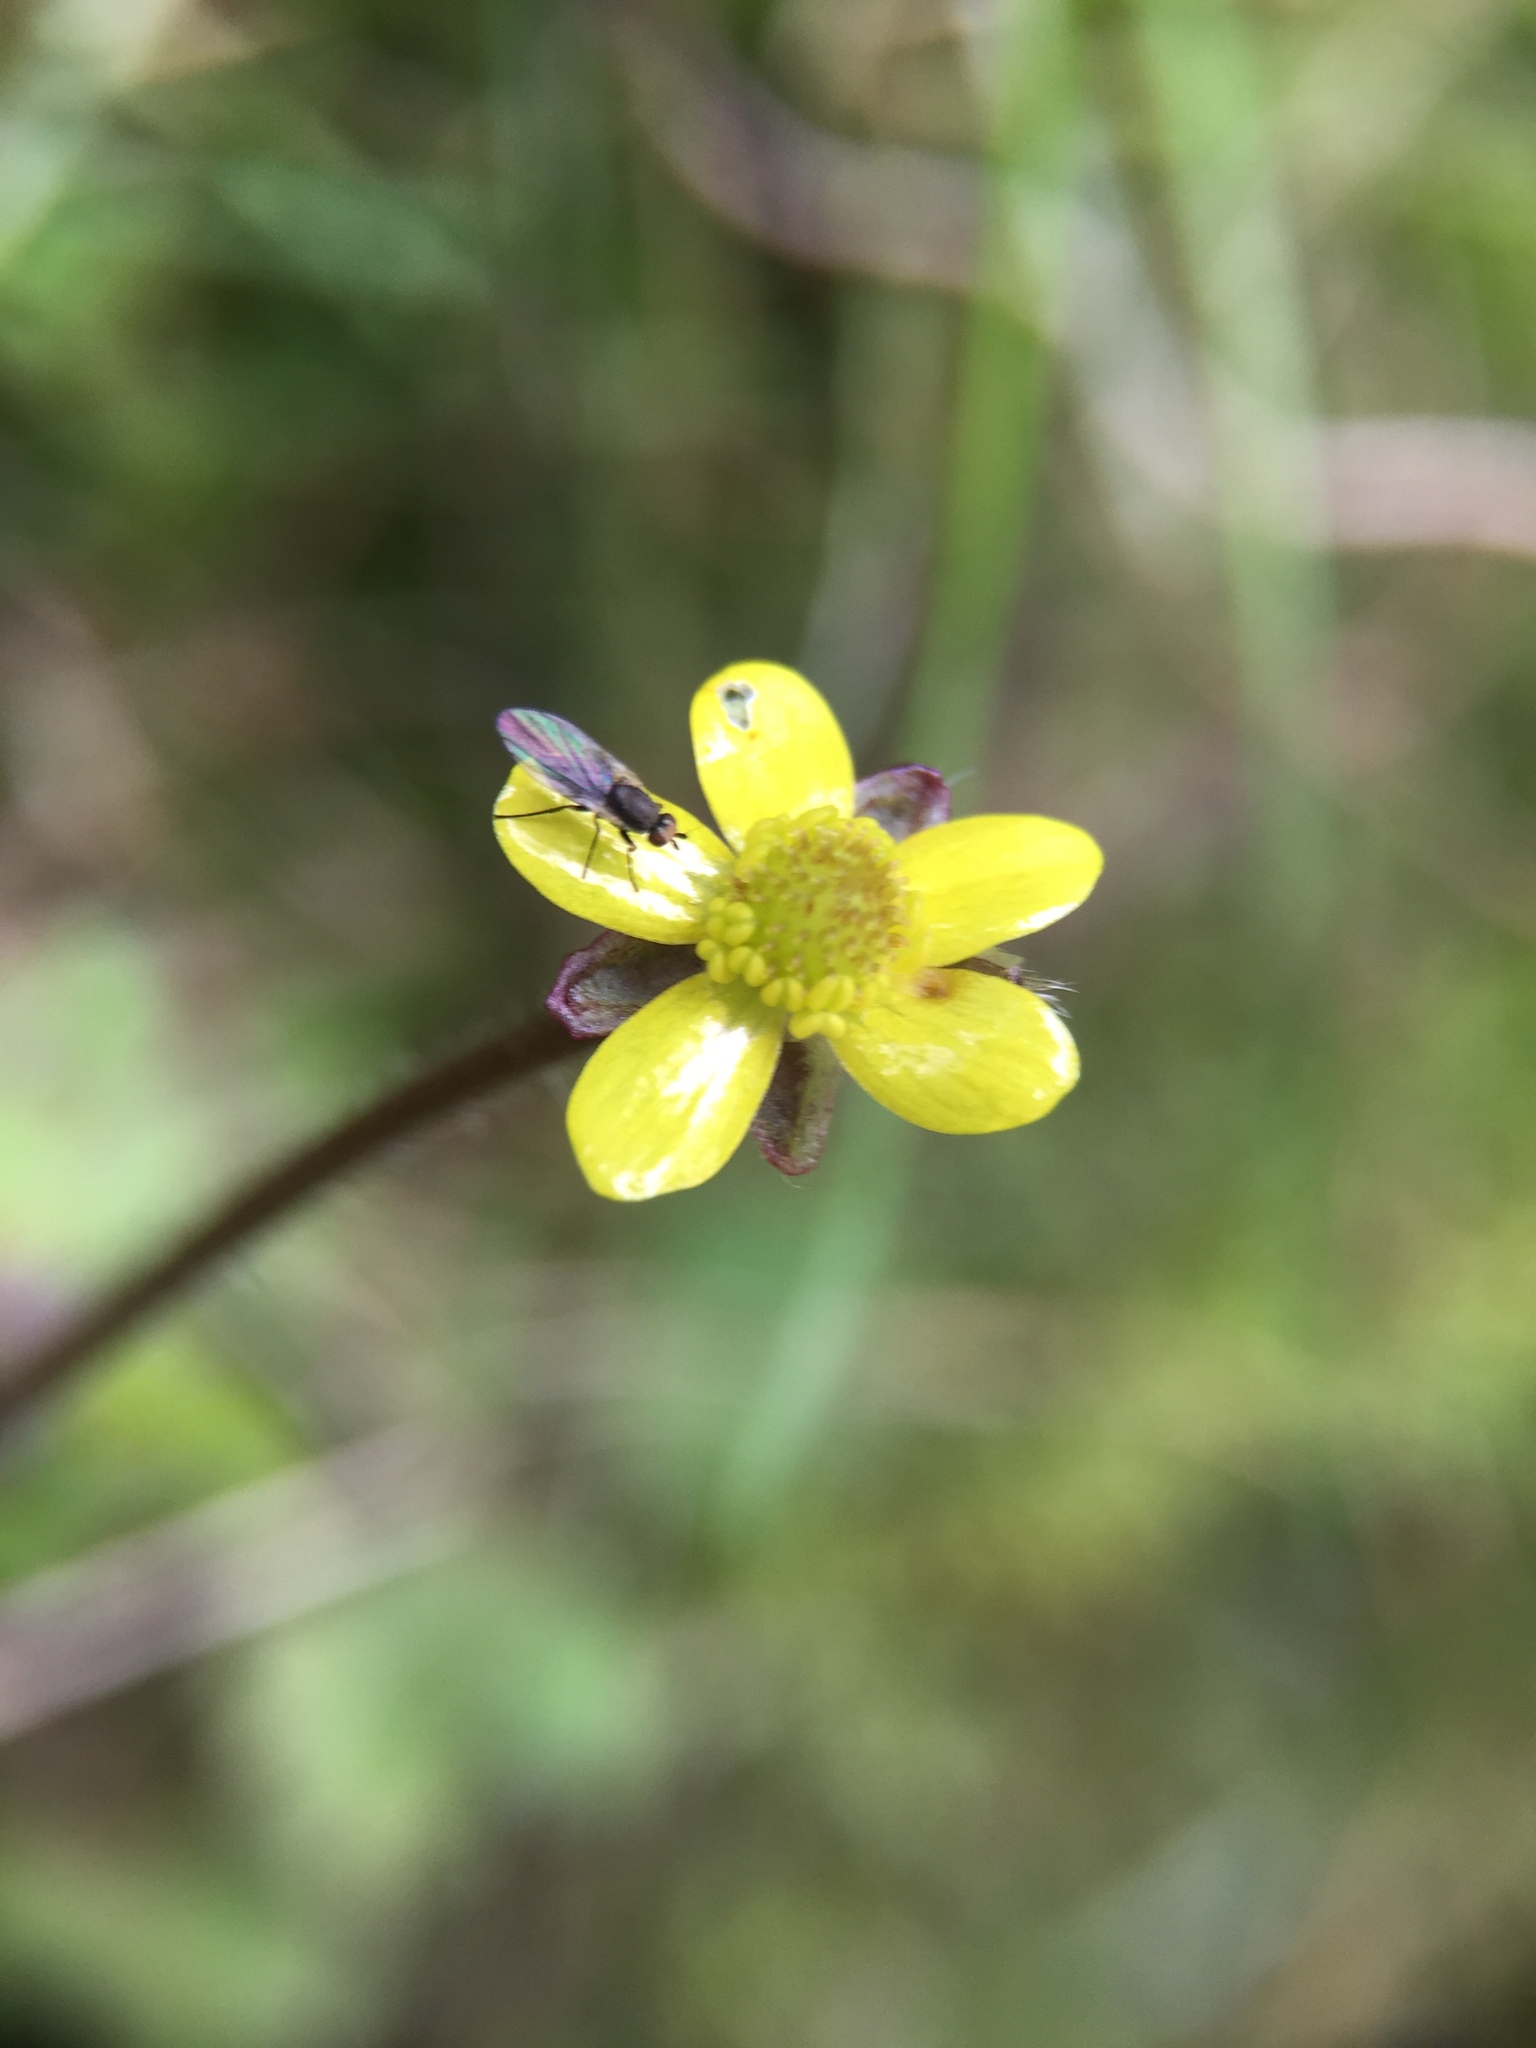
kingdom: Plantae
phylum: Tracheophyta
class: Magnoliopsida
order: Ranunculales
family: Ranunculaceae
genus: Ranunculus
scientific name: Ranunculus reflexus
